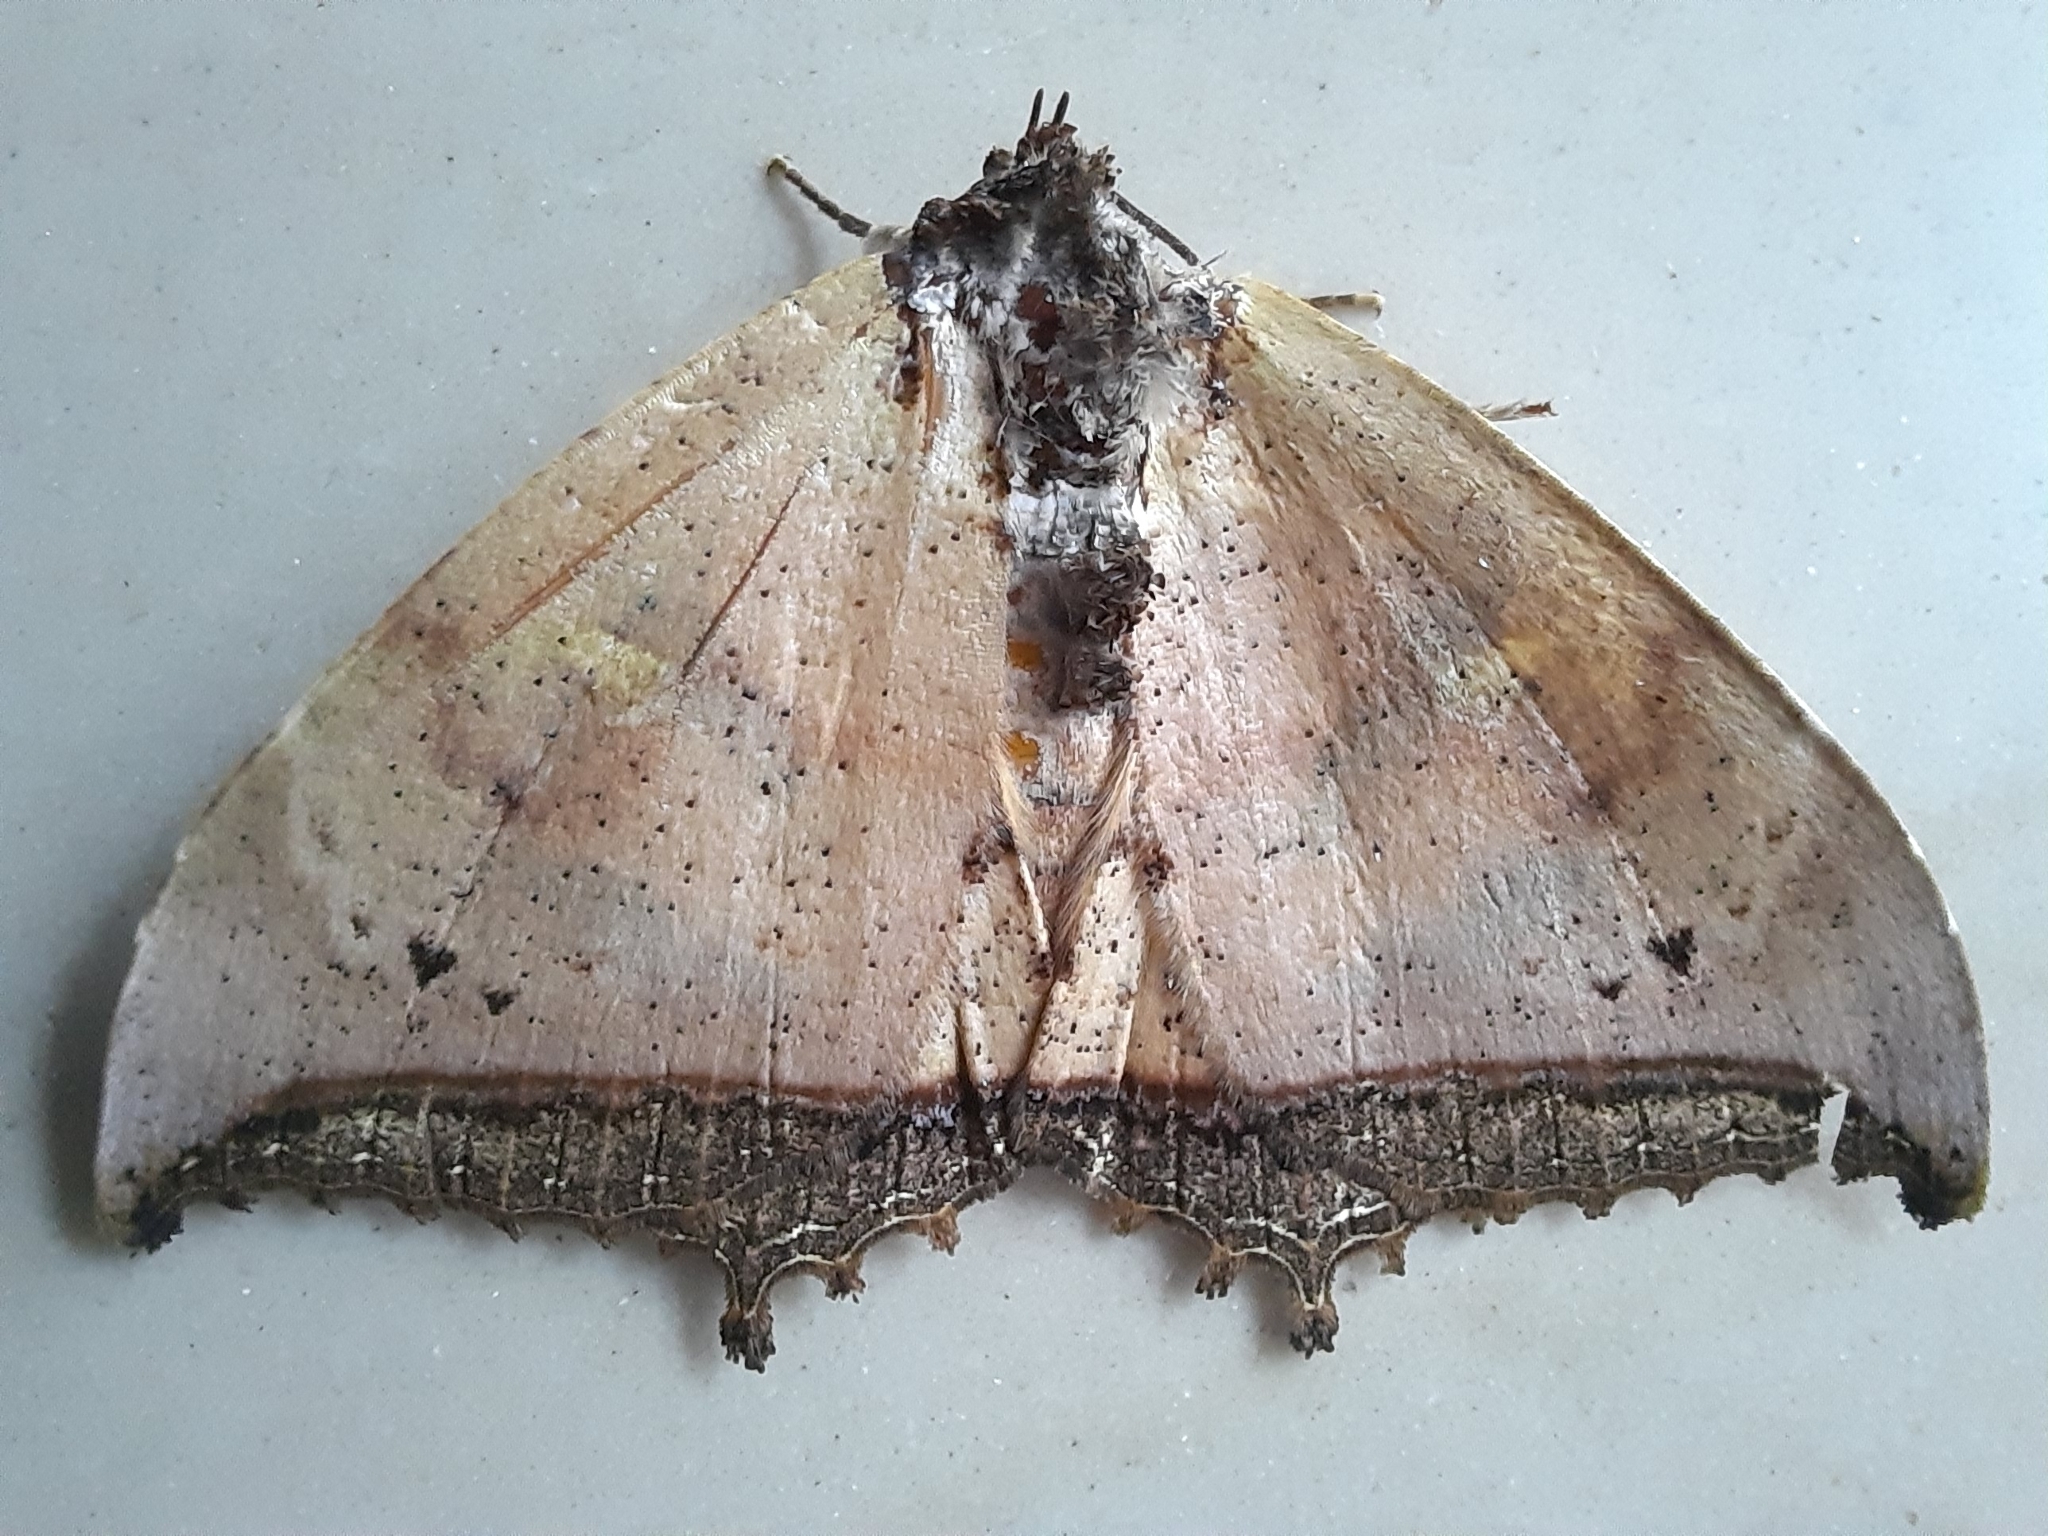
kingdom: Animalia
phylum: Arthropoda
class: Insecta
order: Lepidoptera
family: Erebidae
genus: Pterocyclophora
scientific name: Pterocyclophora pictimargo
